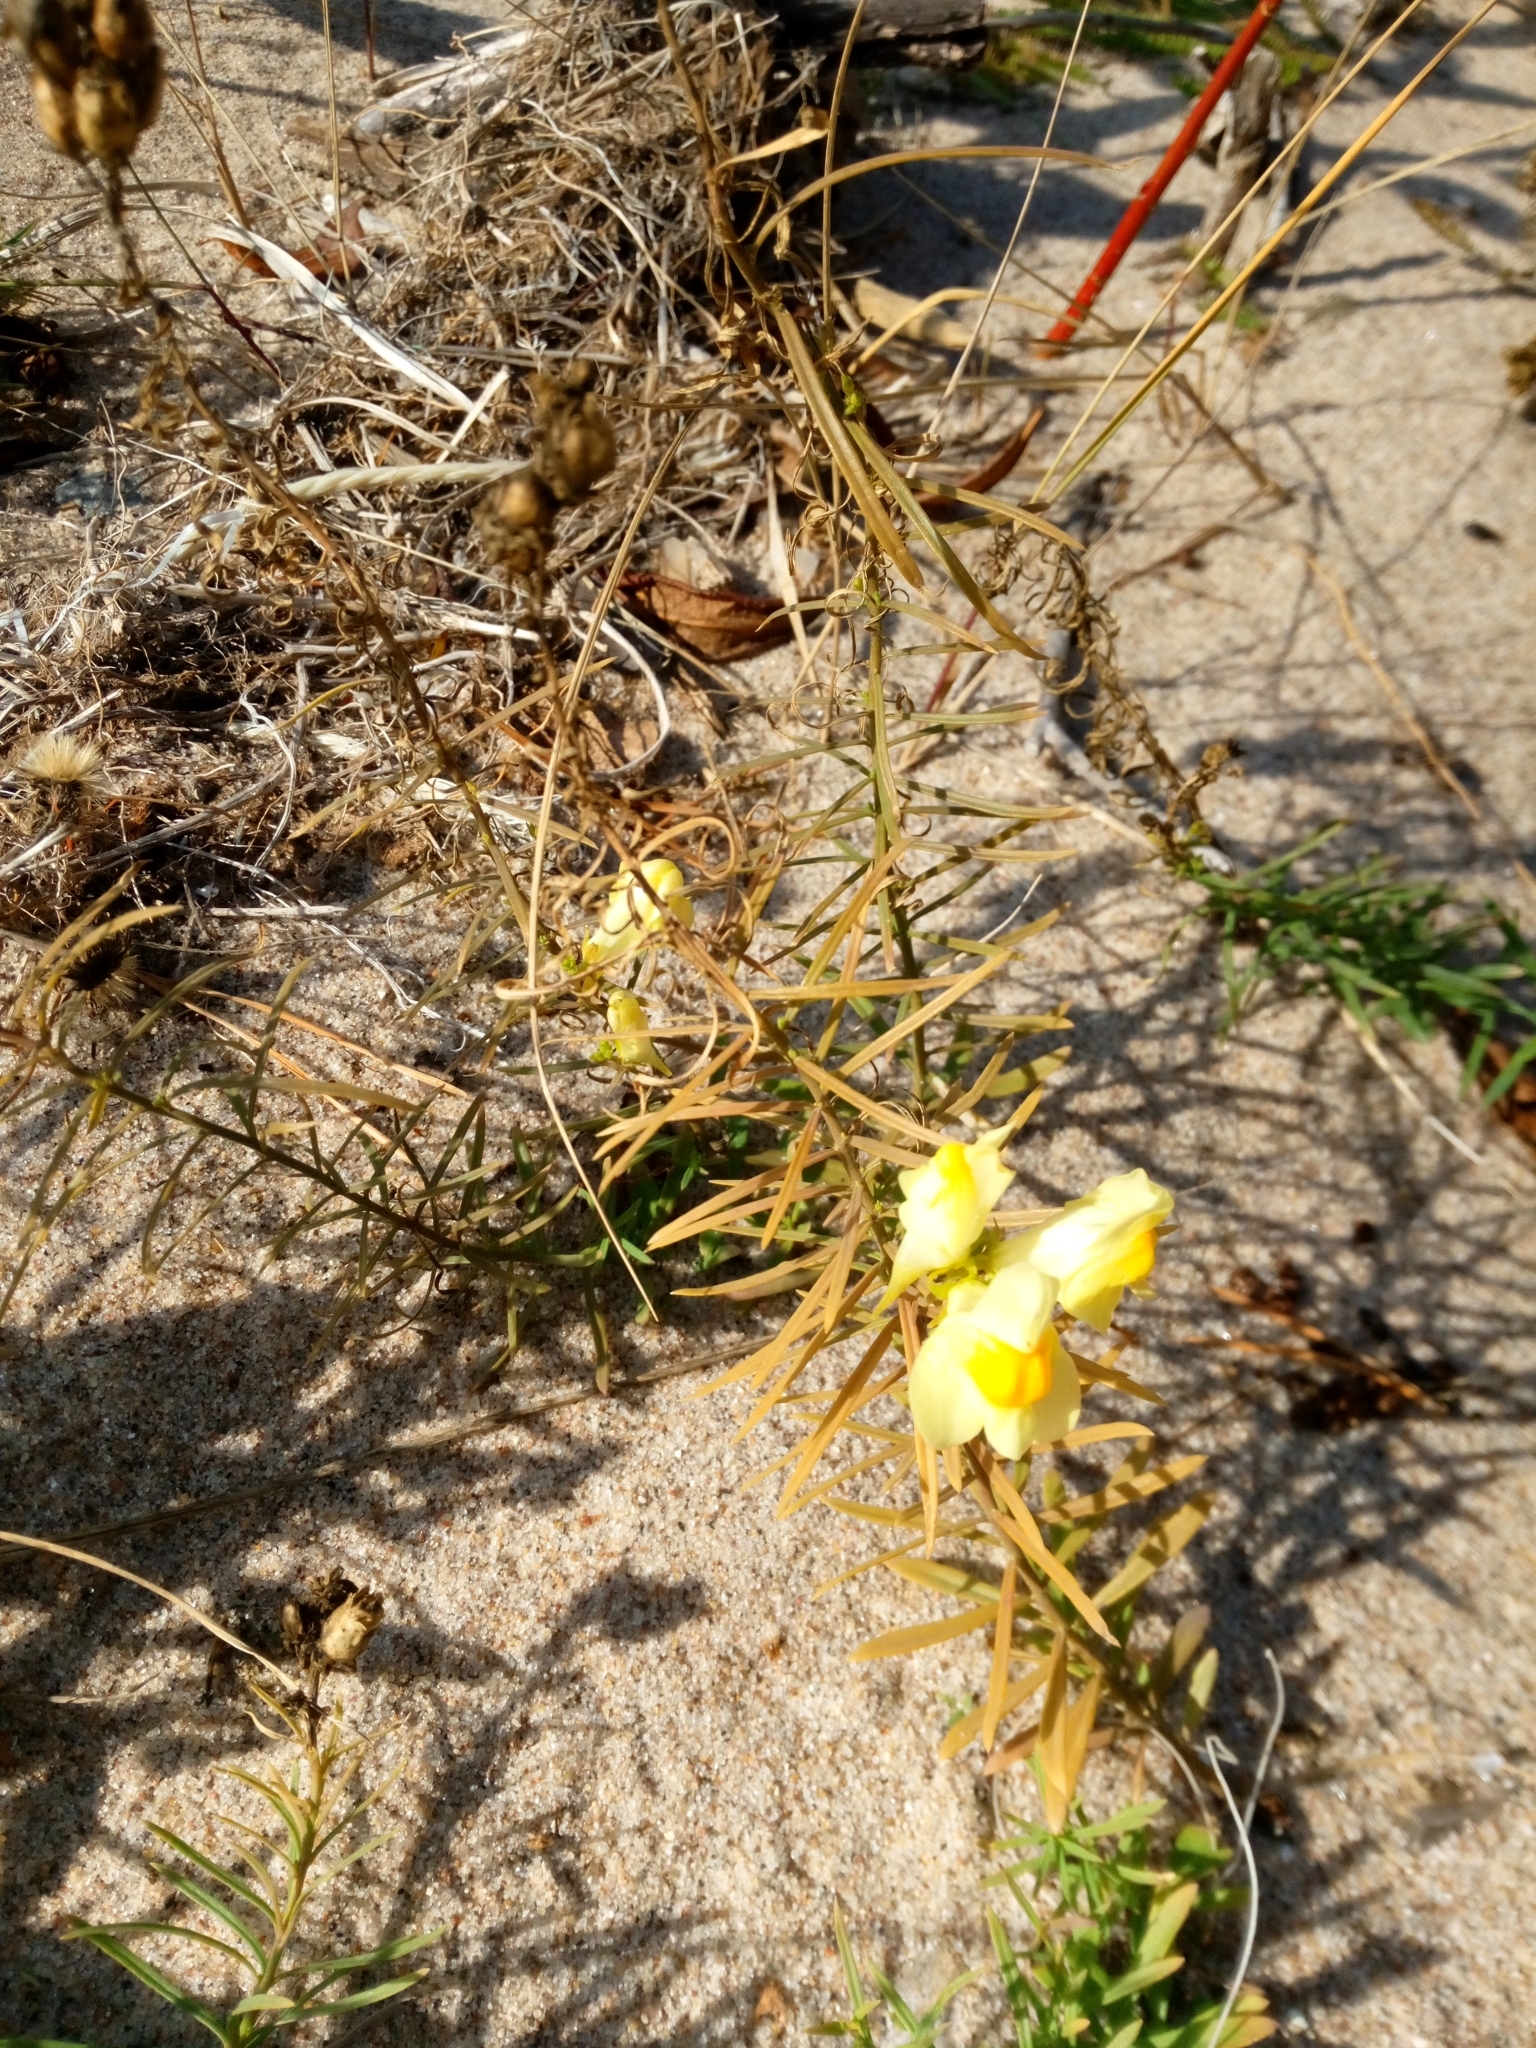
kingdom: Plantae
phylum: Tracheophyta
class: Magnoliopsida
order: Lamiales
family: Plantaginaceae
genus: Linaria
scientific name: Linaria vulgaris
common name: Butter and eggs
